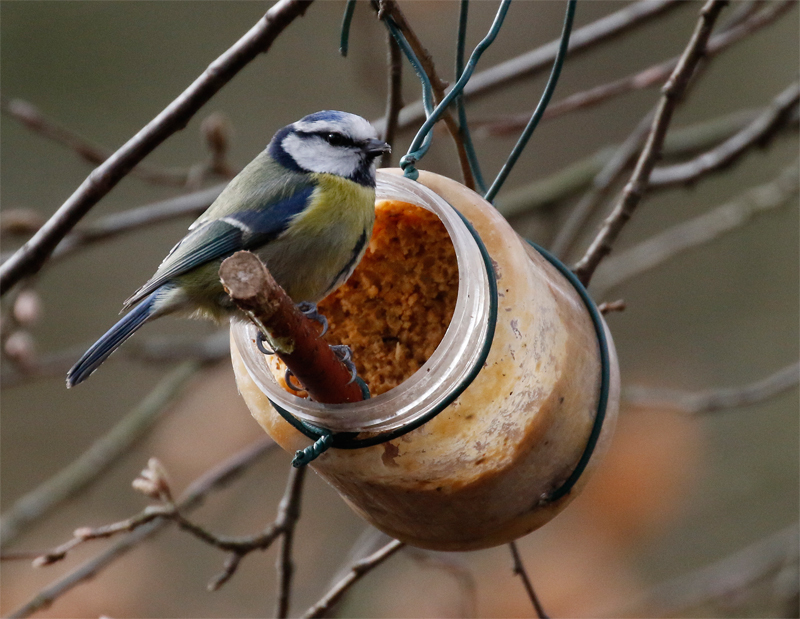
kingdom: Animalia
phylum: Chordata
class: Aves
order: Passeriformes
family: Paridae
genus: Cyanistes
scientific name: Cyanistes caeruleus
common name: Eurasian blue tit
